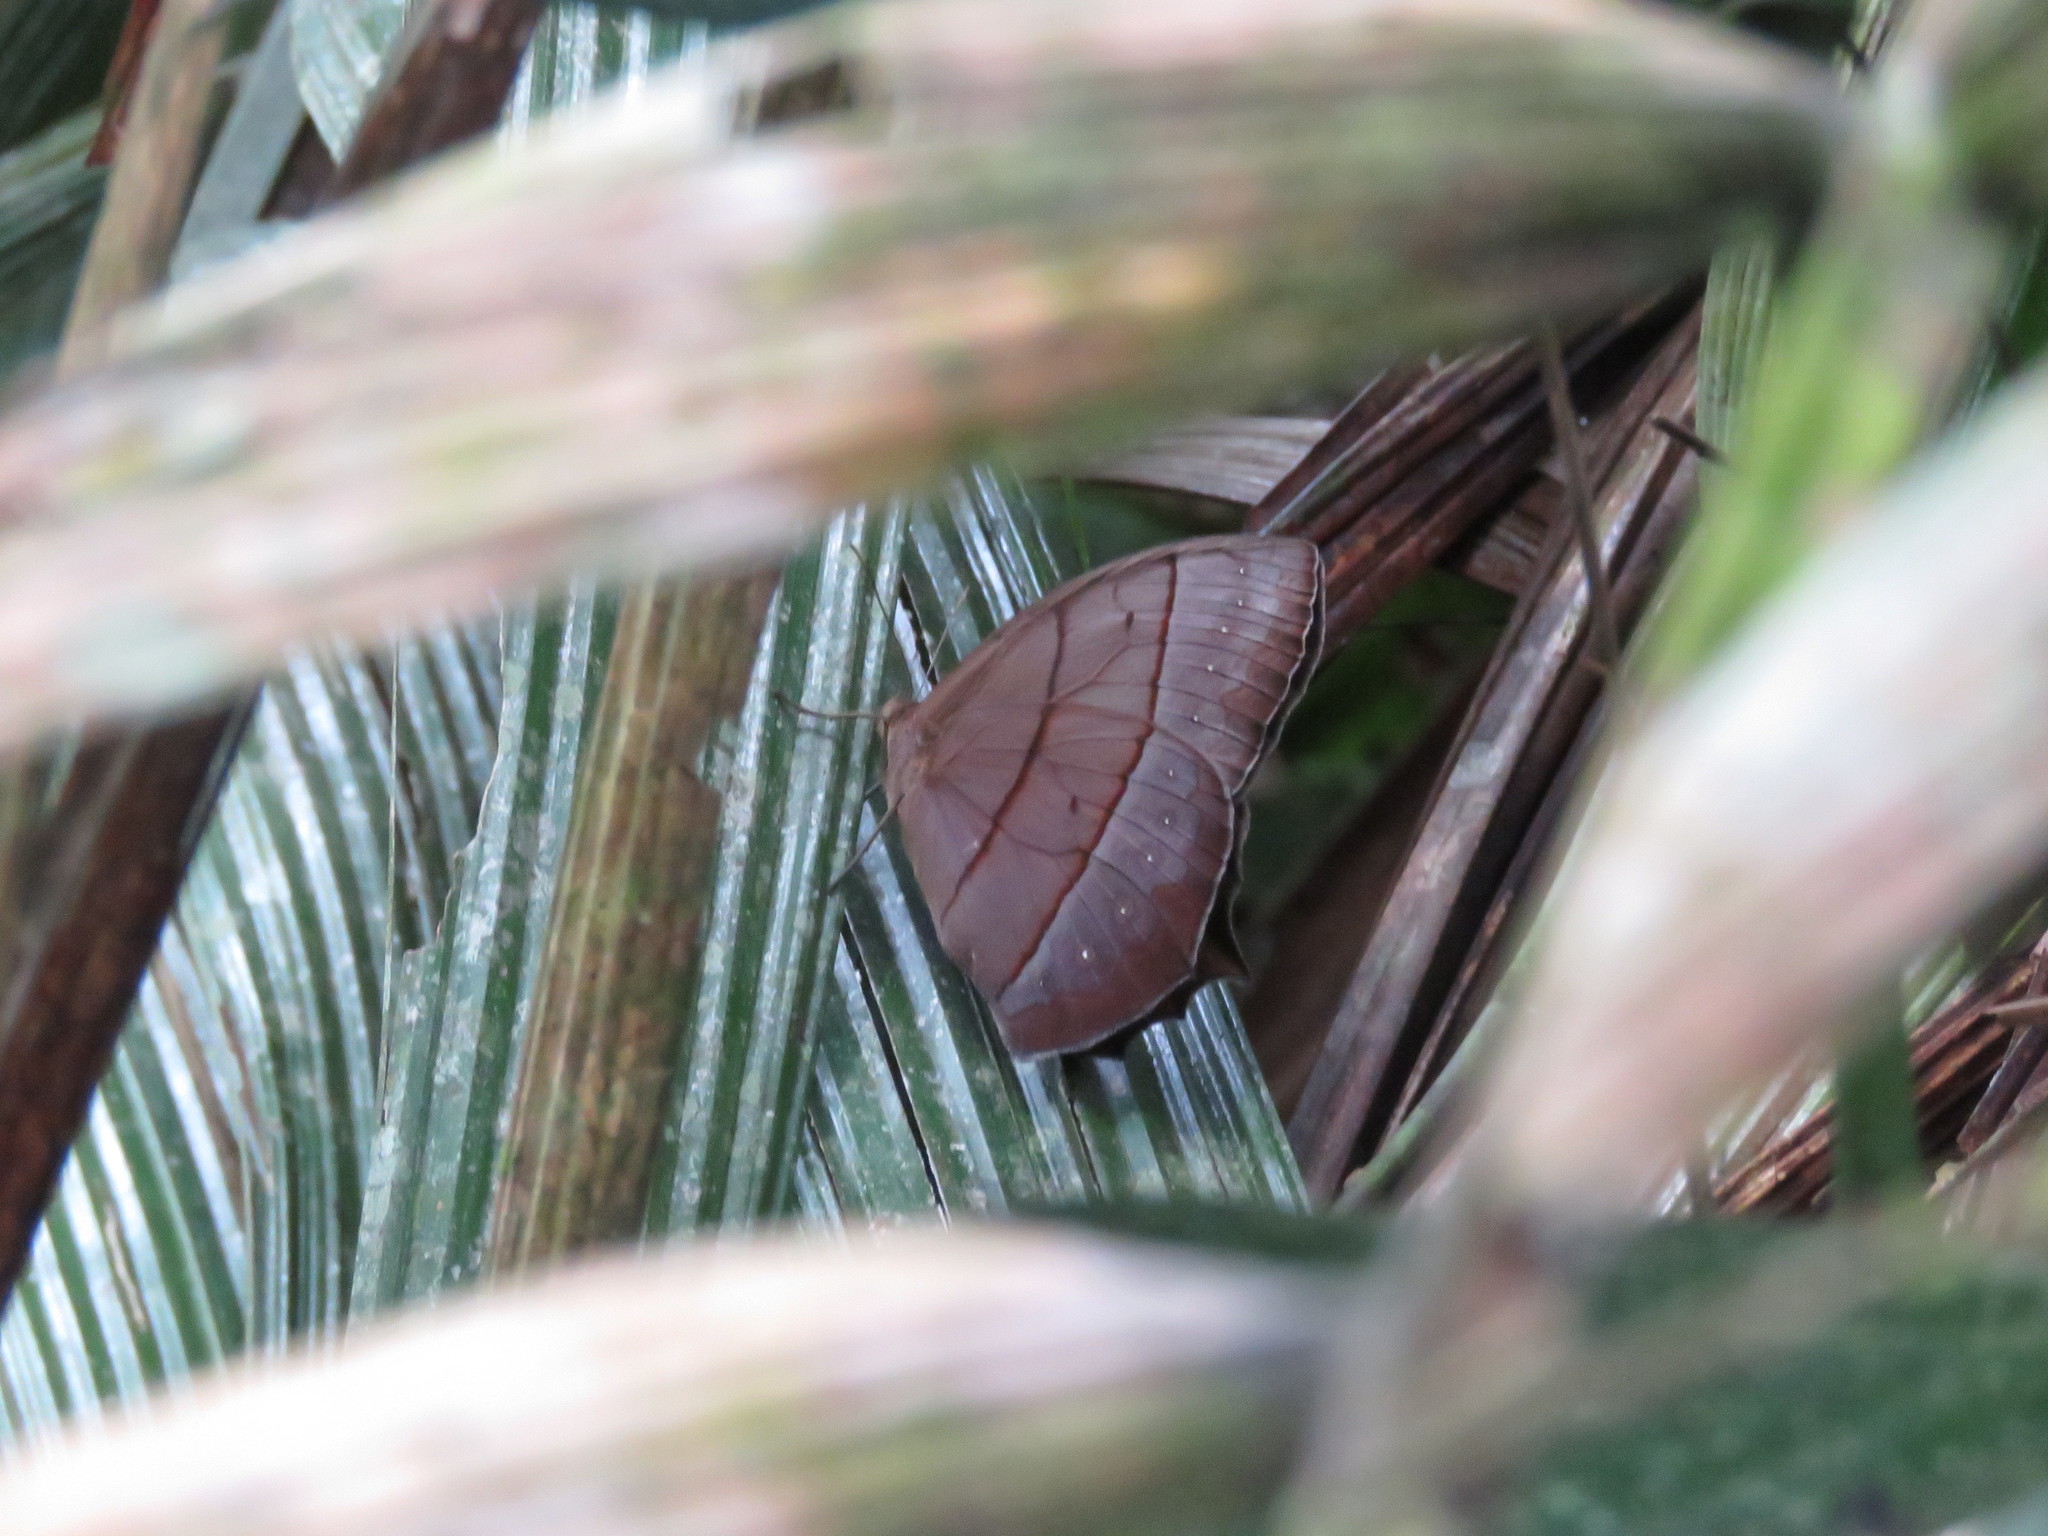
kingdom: Animalia
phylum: Arthropoda
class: Insecta
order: Lepidoptera
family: Nymphalidae
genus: Taygetis
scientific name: Taygetis virgilia
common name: Stub-tailed satyr
